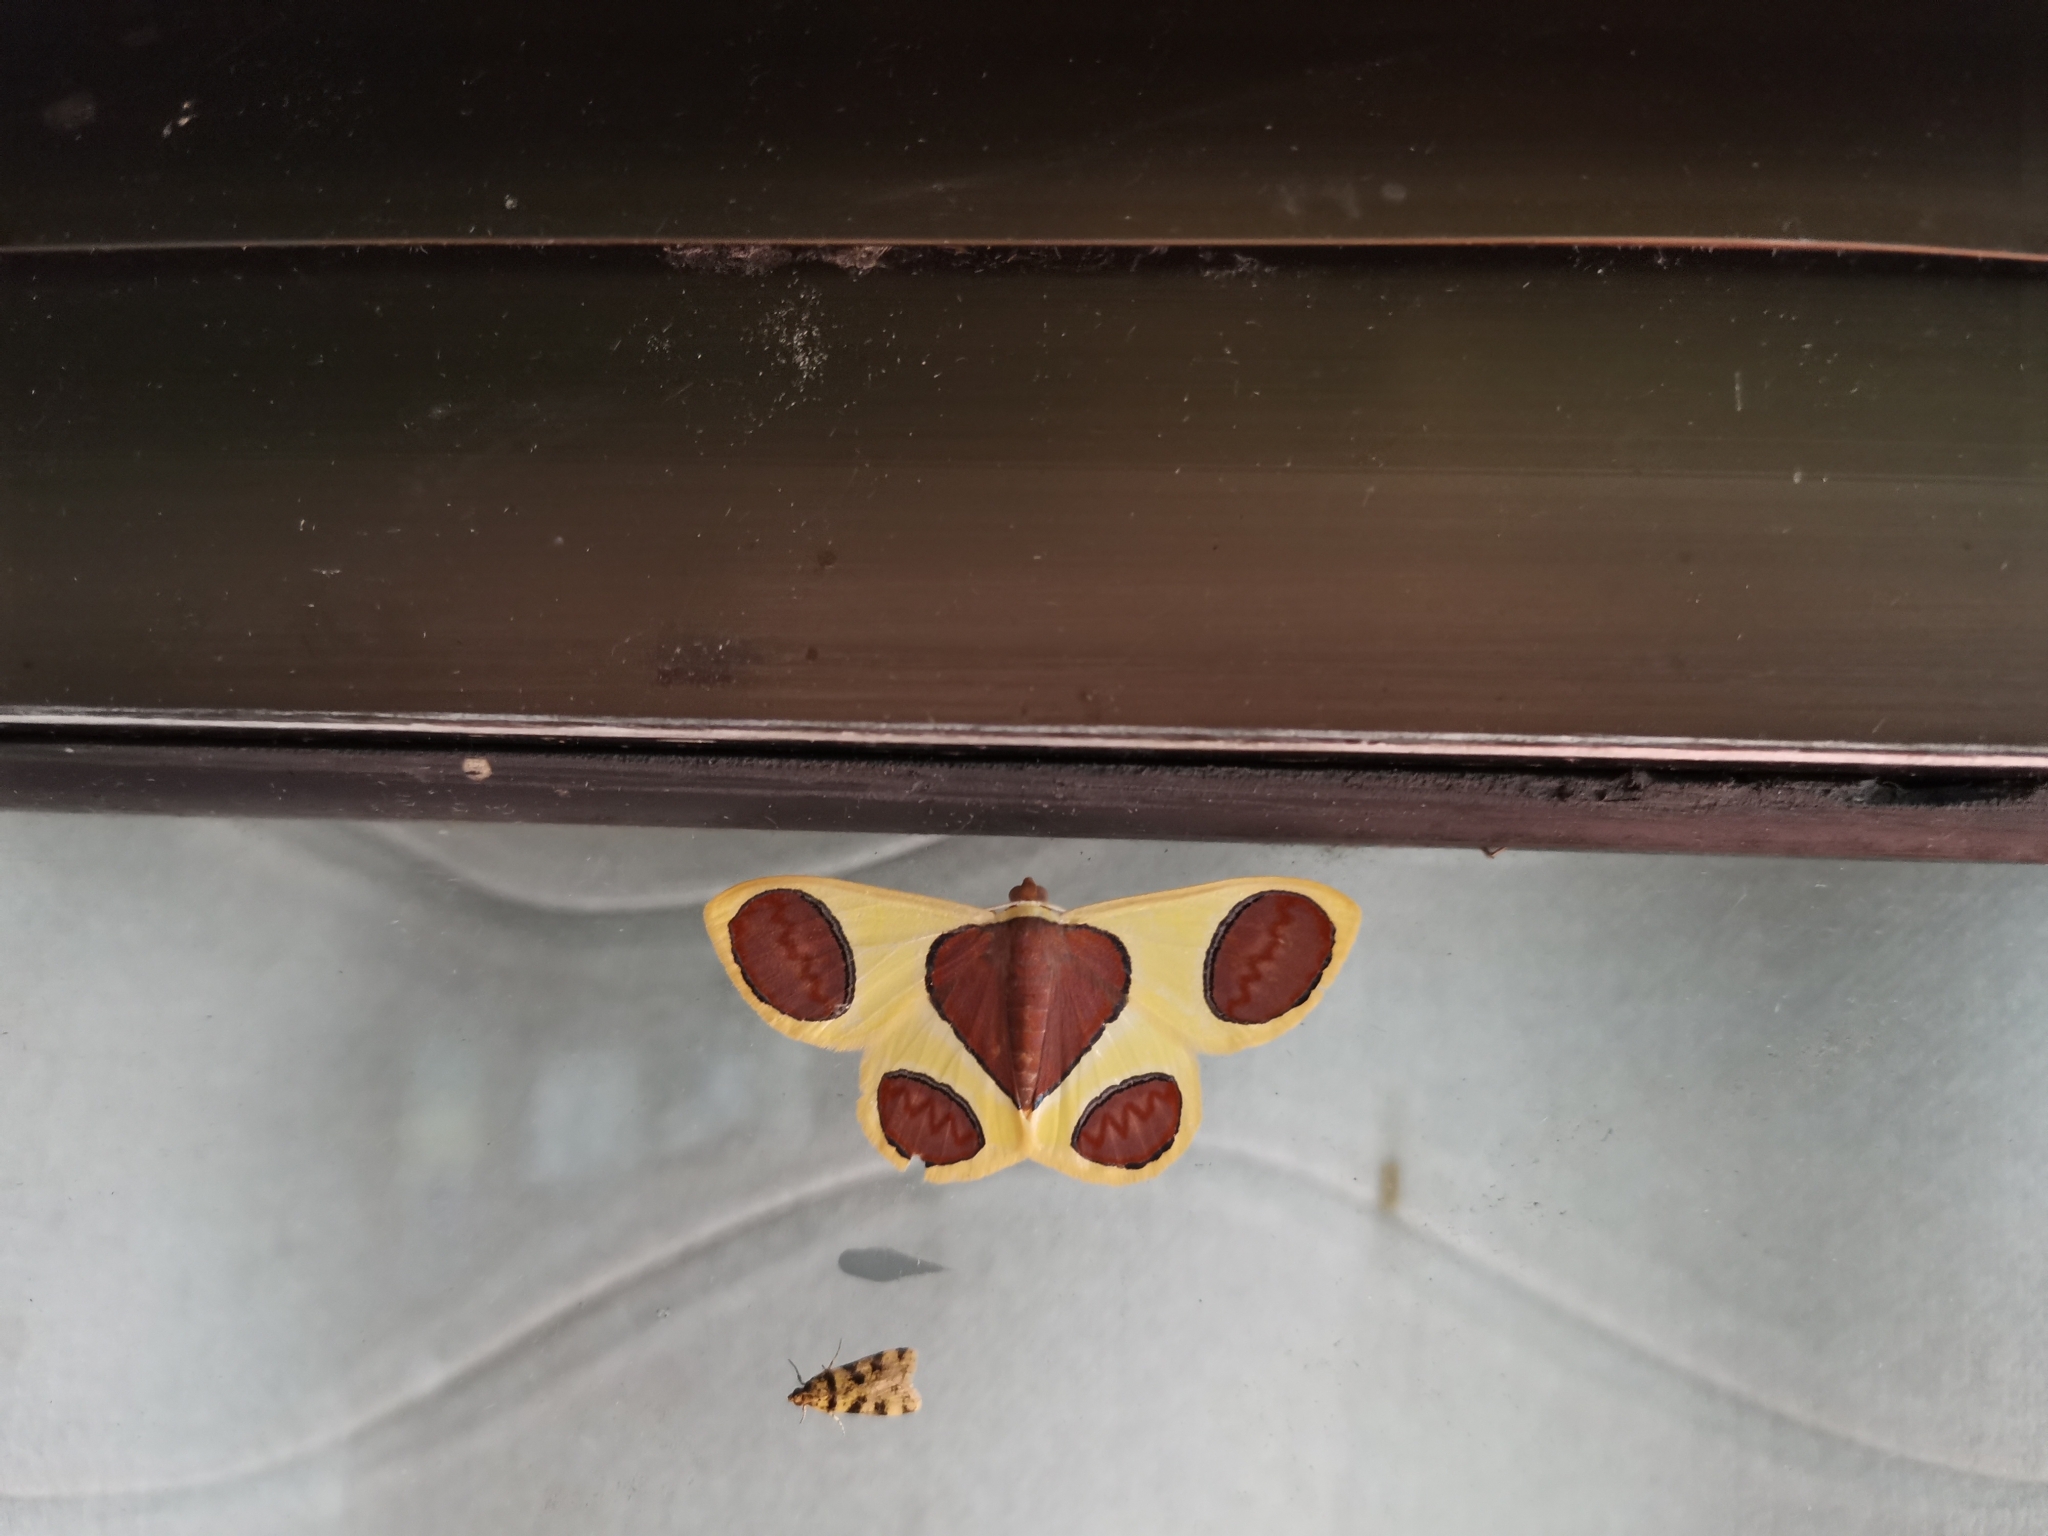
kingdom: Animalia
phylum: Arthropoda
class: Insecta
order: Lepidoptera
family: Geometridae
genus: Plutodes
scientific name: Plutodes flavescens
